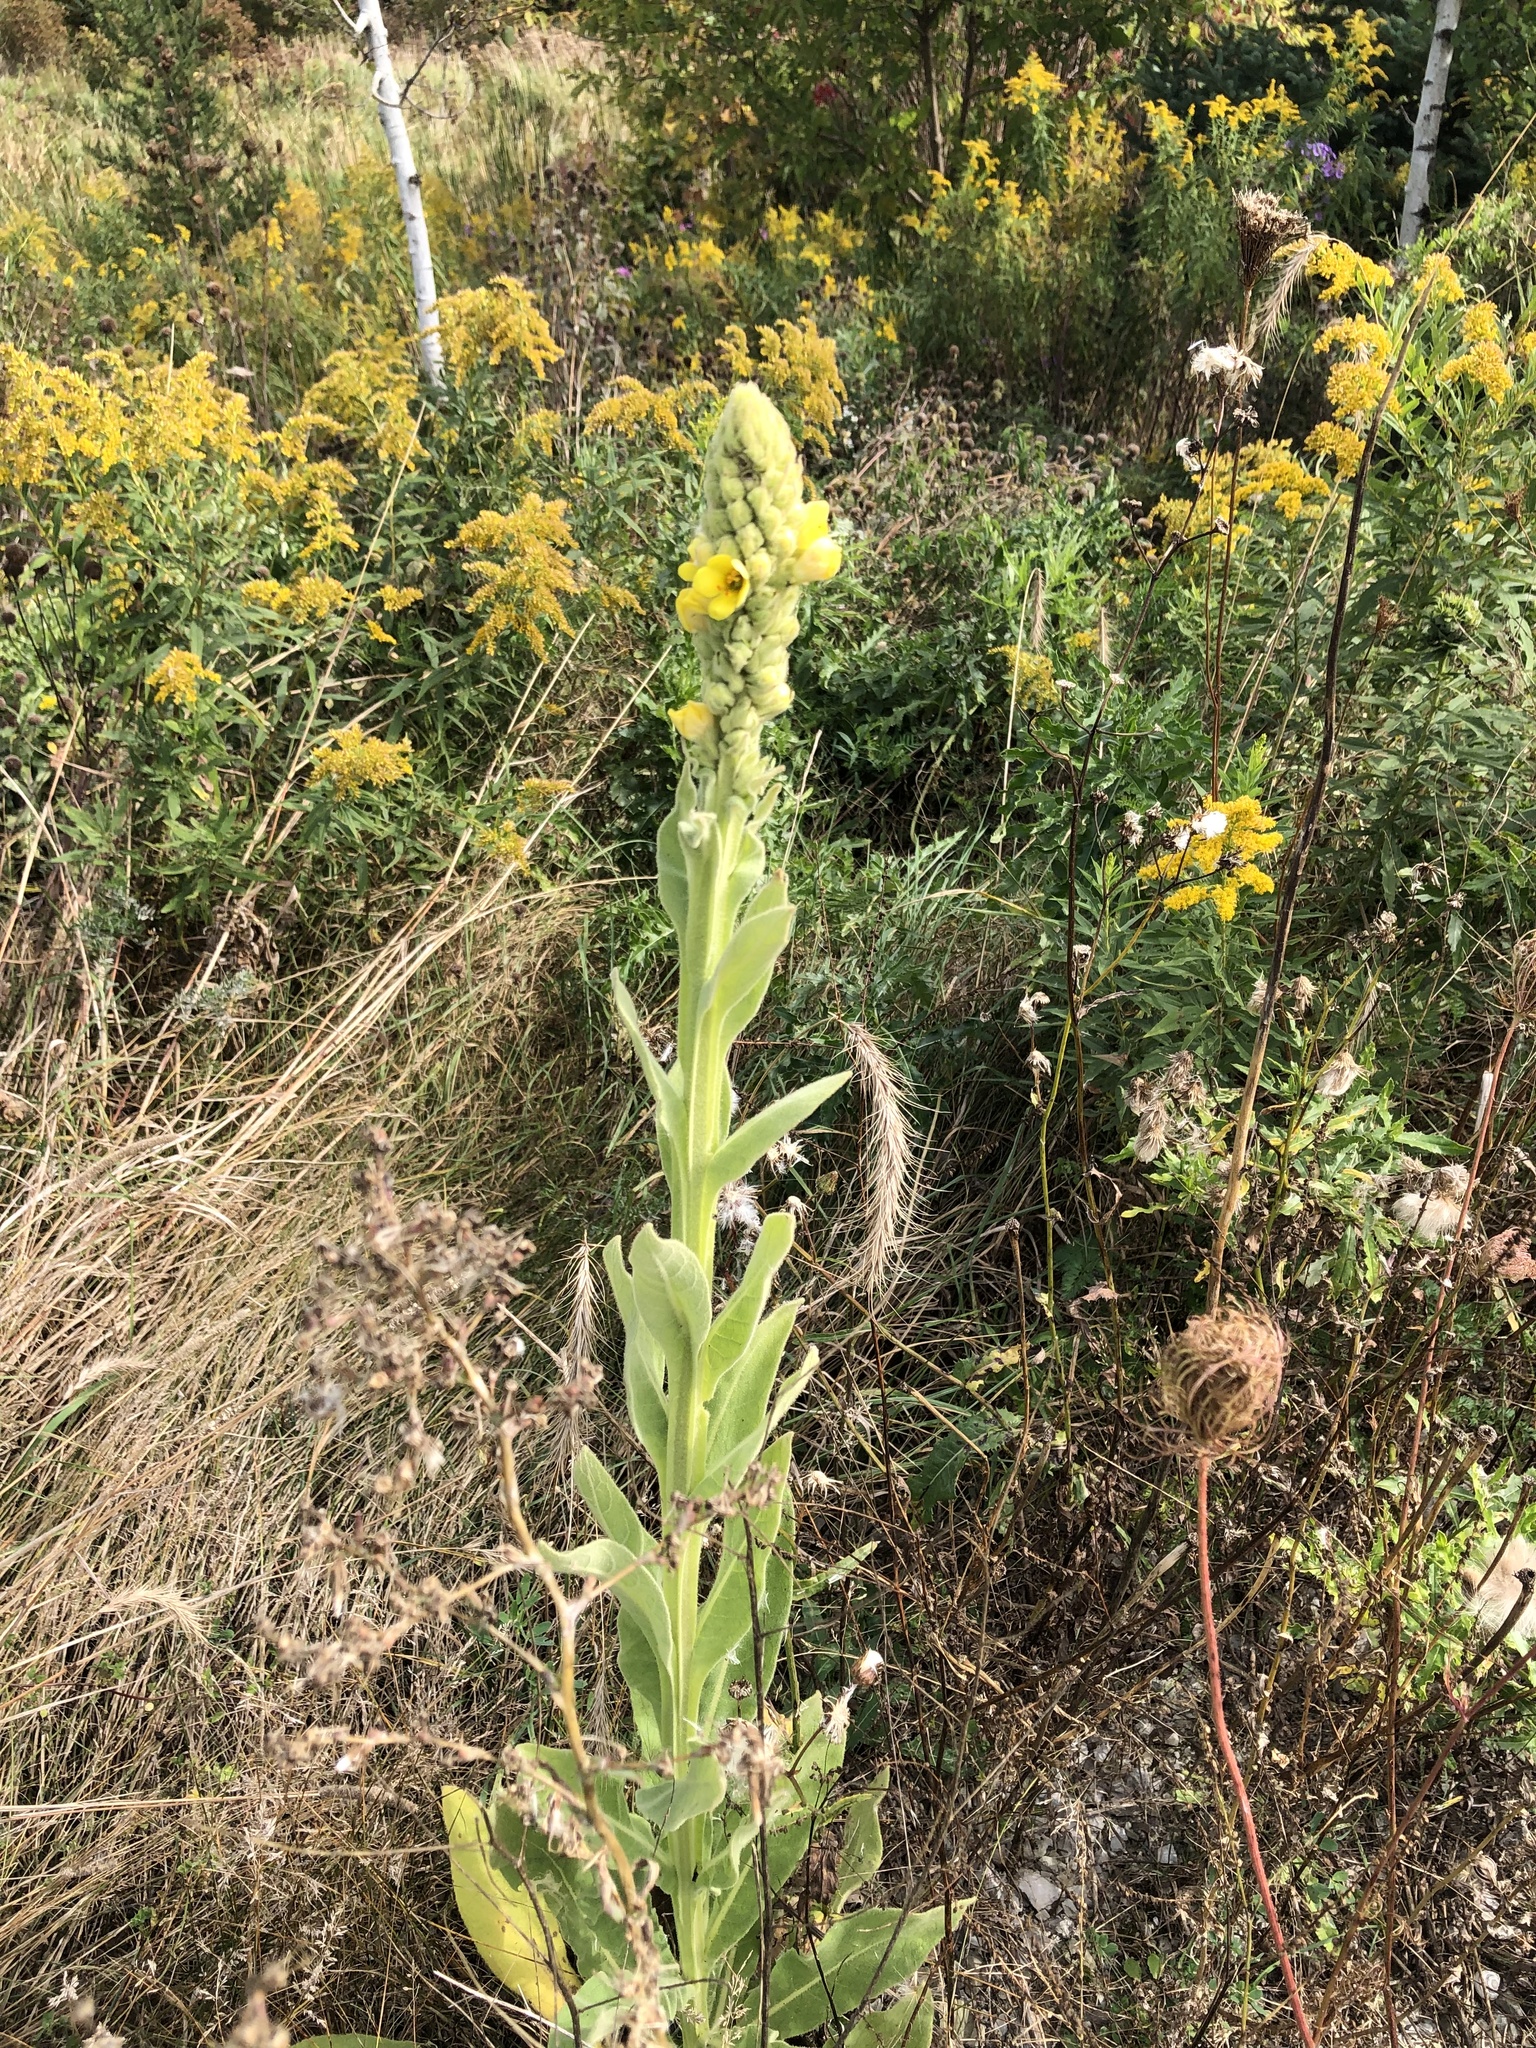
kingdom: Plantae
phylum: Tracheophyta
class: Magnoliopsida
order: Lamiales
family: Scrophulariaceae
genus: Verbascum
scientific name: Verbascum thapsus
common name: Common mullein
